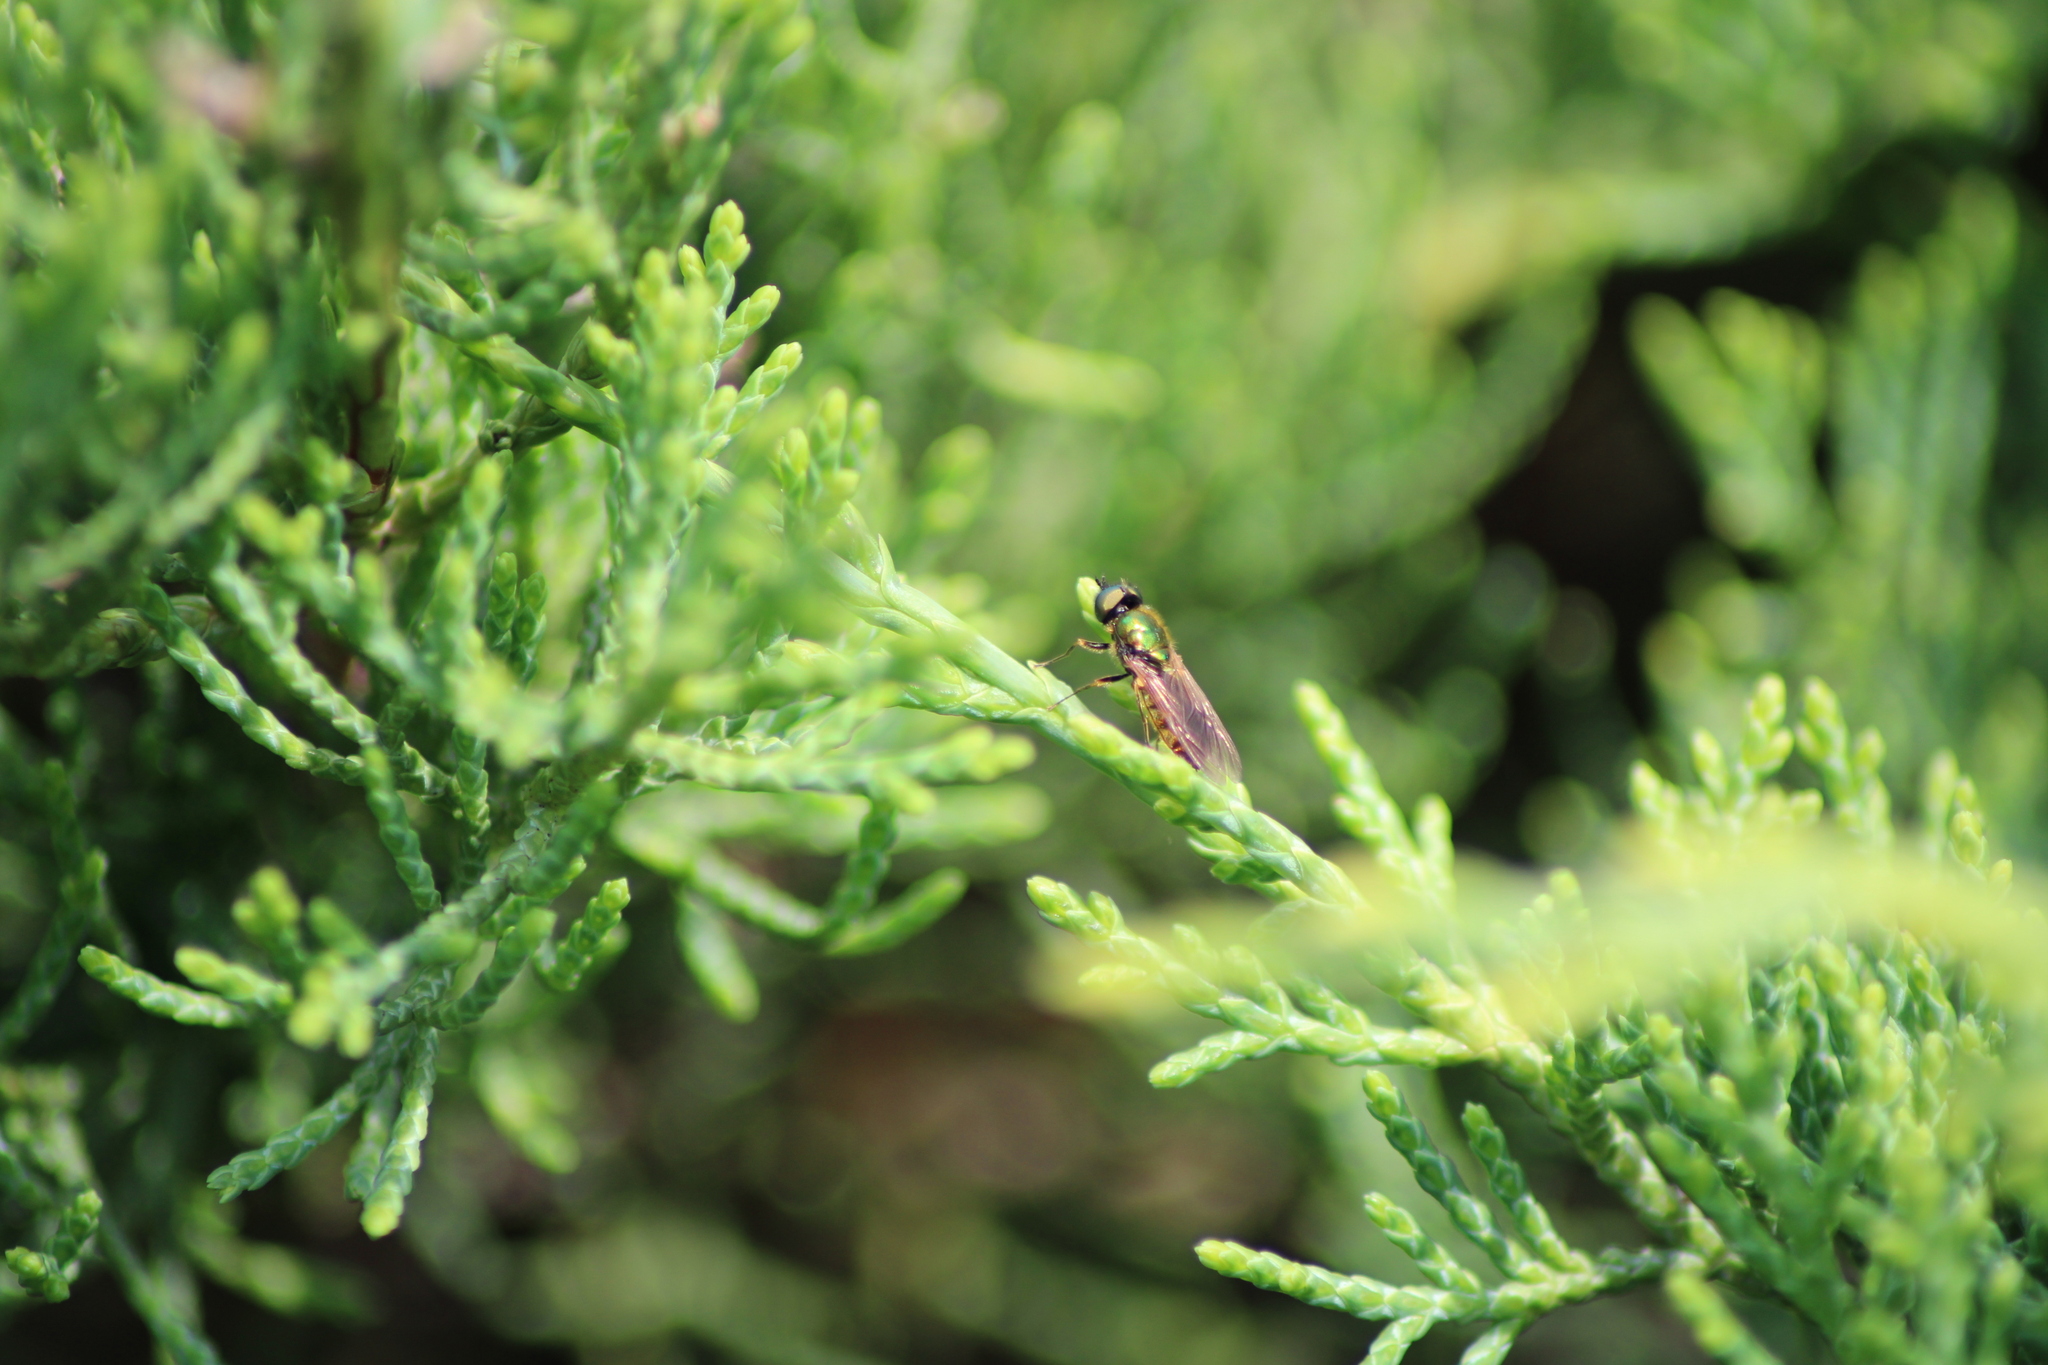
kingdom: Animalia
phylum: Arthropoda
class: Insecta
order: Diptera
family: Stratiomyidae
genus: Chloromyia
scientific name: Chloromyia formosa
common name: Soldier fly
